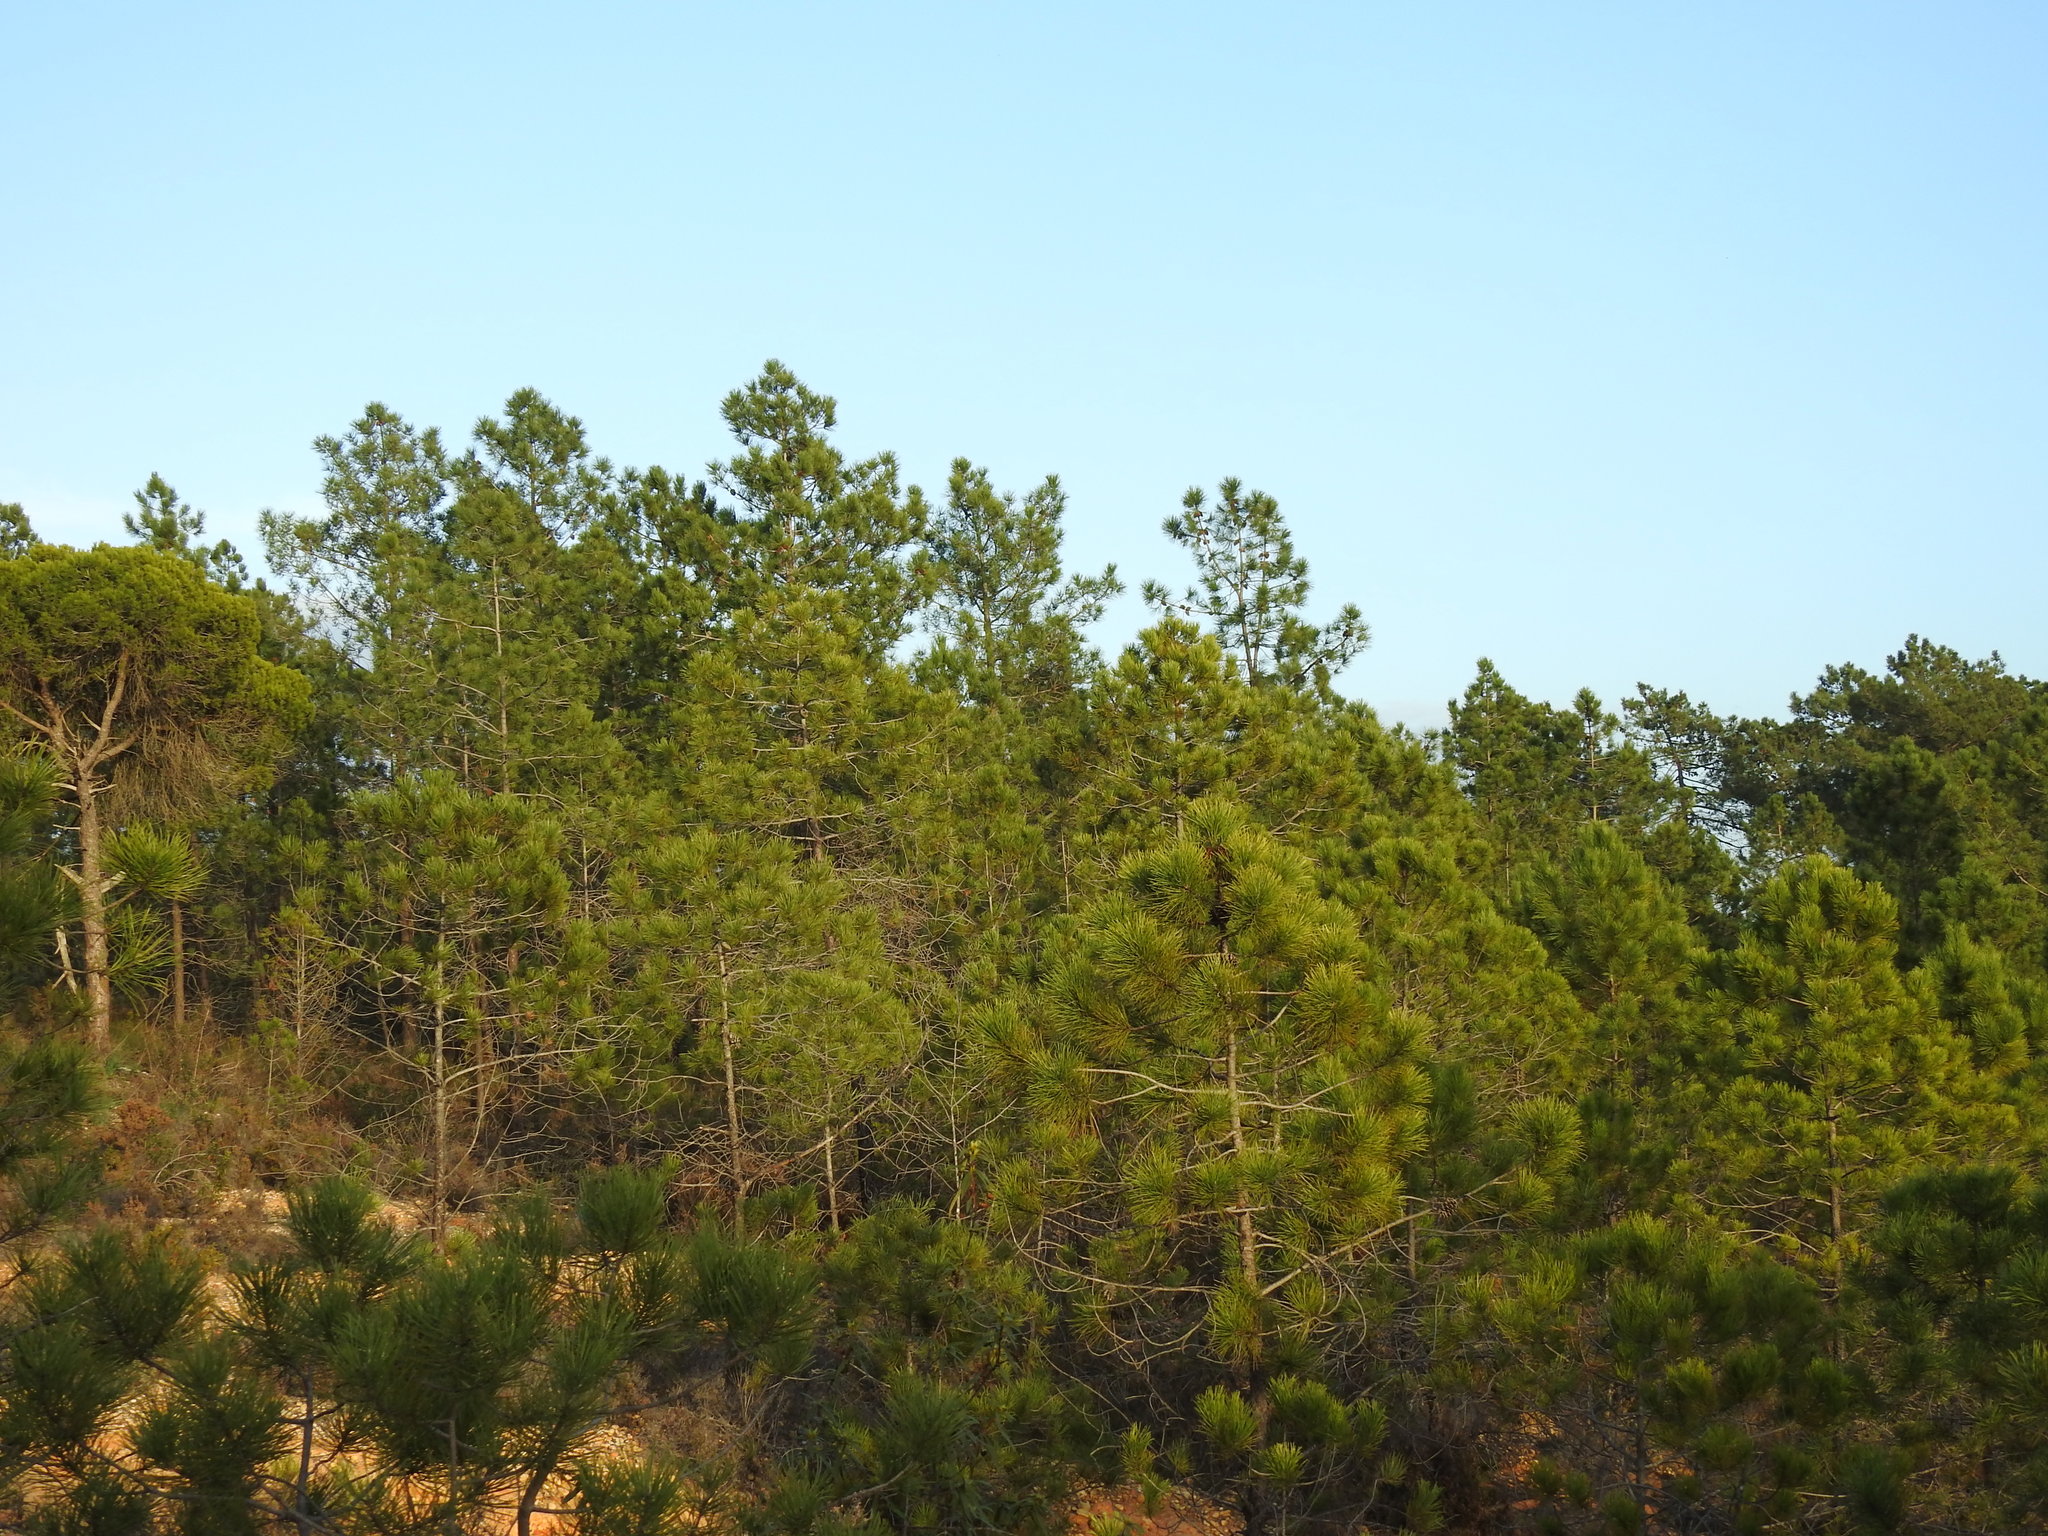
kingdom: Plantae
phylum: Tracheophyta
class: Pinopsida
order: Pinales
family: Pinaceae
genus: Pinus
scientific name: Pinus pinaster
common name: Maritime pine
